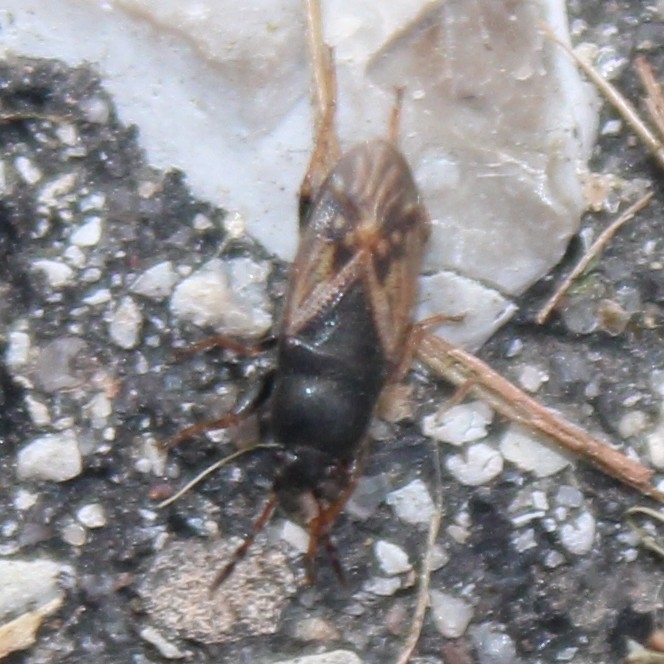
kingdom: Animalia
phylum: Arthropoda
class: Insecta
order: Hemiptera
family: Rhyparochromidae
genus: Megalonotus
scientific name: Megalonotus sabulicola
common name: Seed bug
